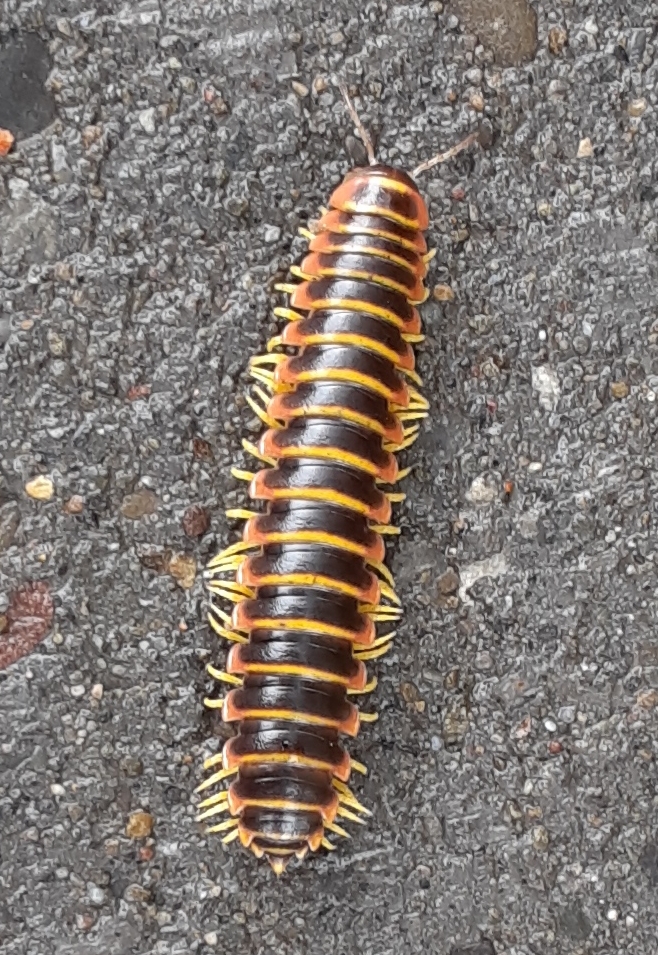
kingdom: Animalia
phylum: Arthropoda
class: Diplopoda
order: Polydesmida
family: Xystodesmidae
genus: Apheloria
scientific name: Apheloria virginiensis
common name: Black-and-gold flat millipede
